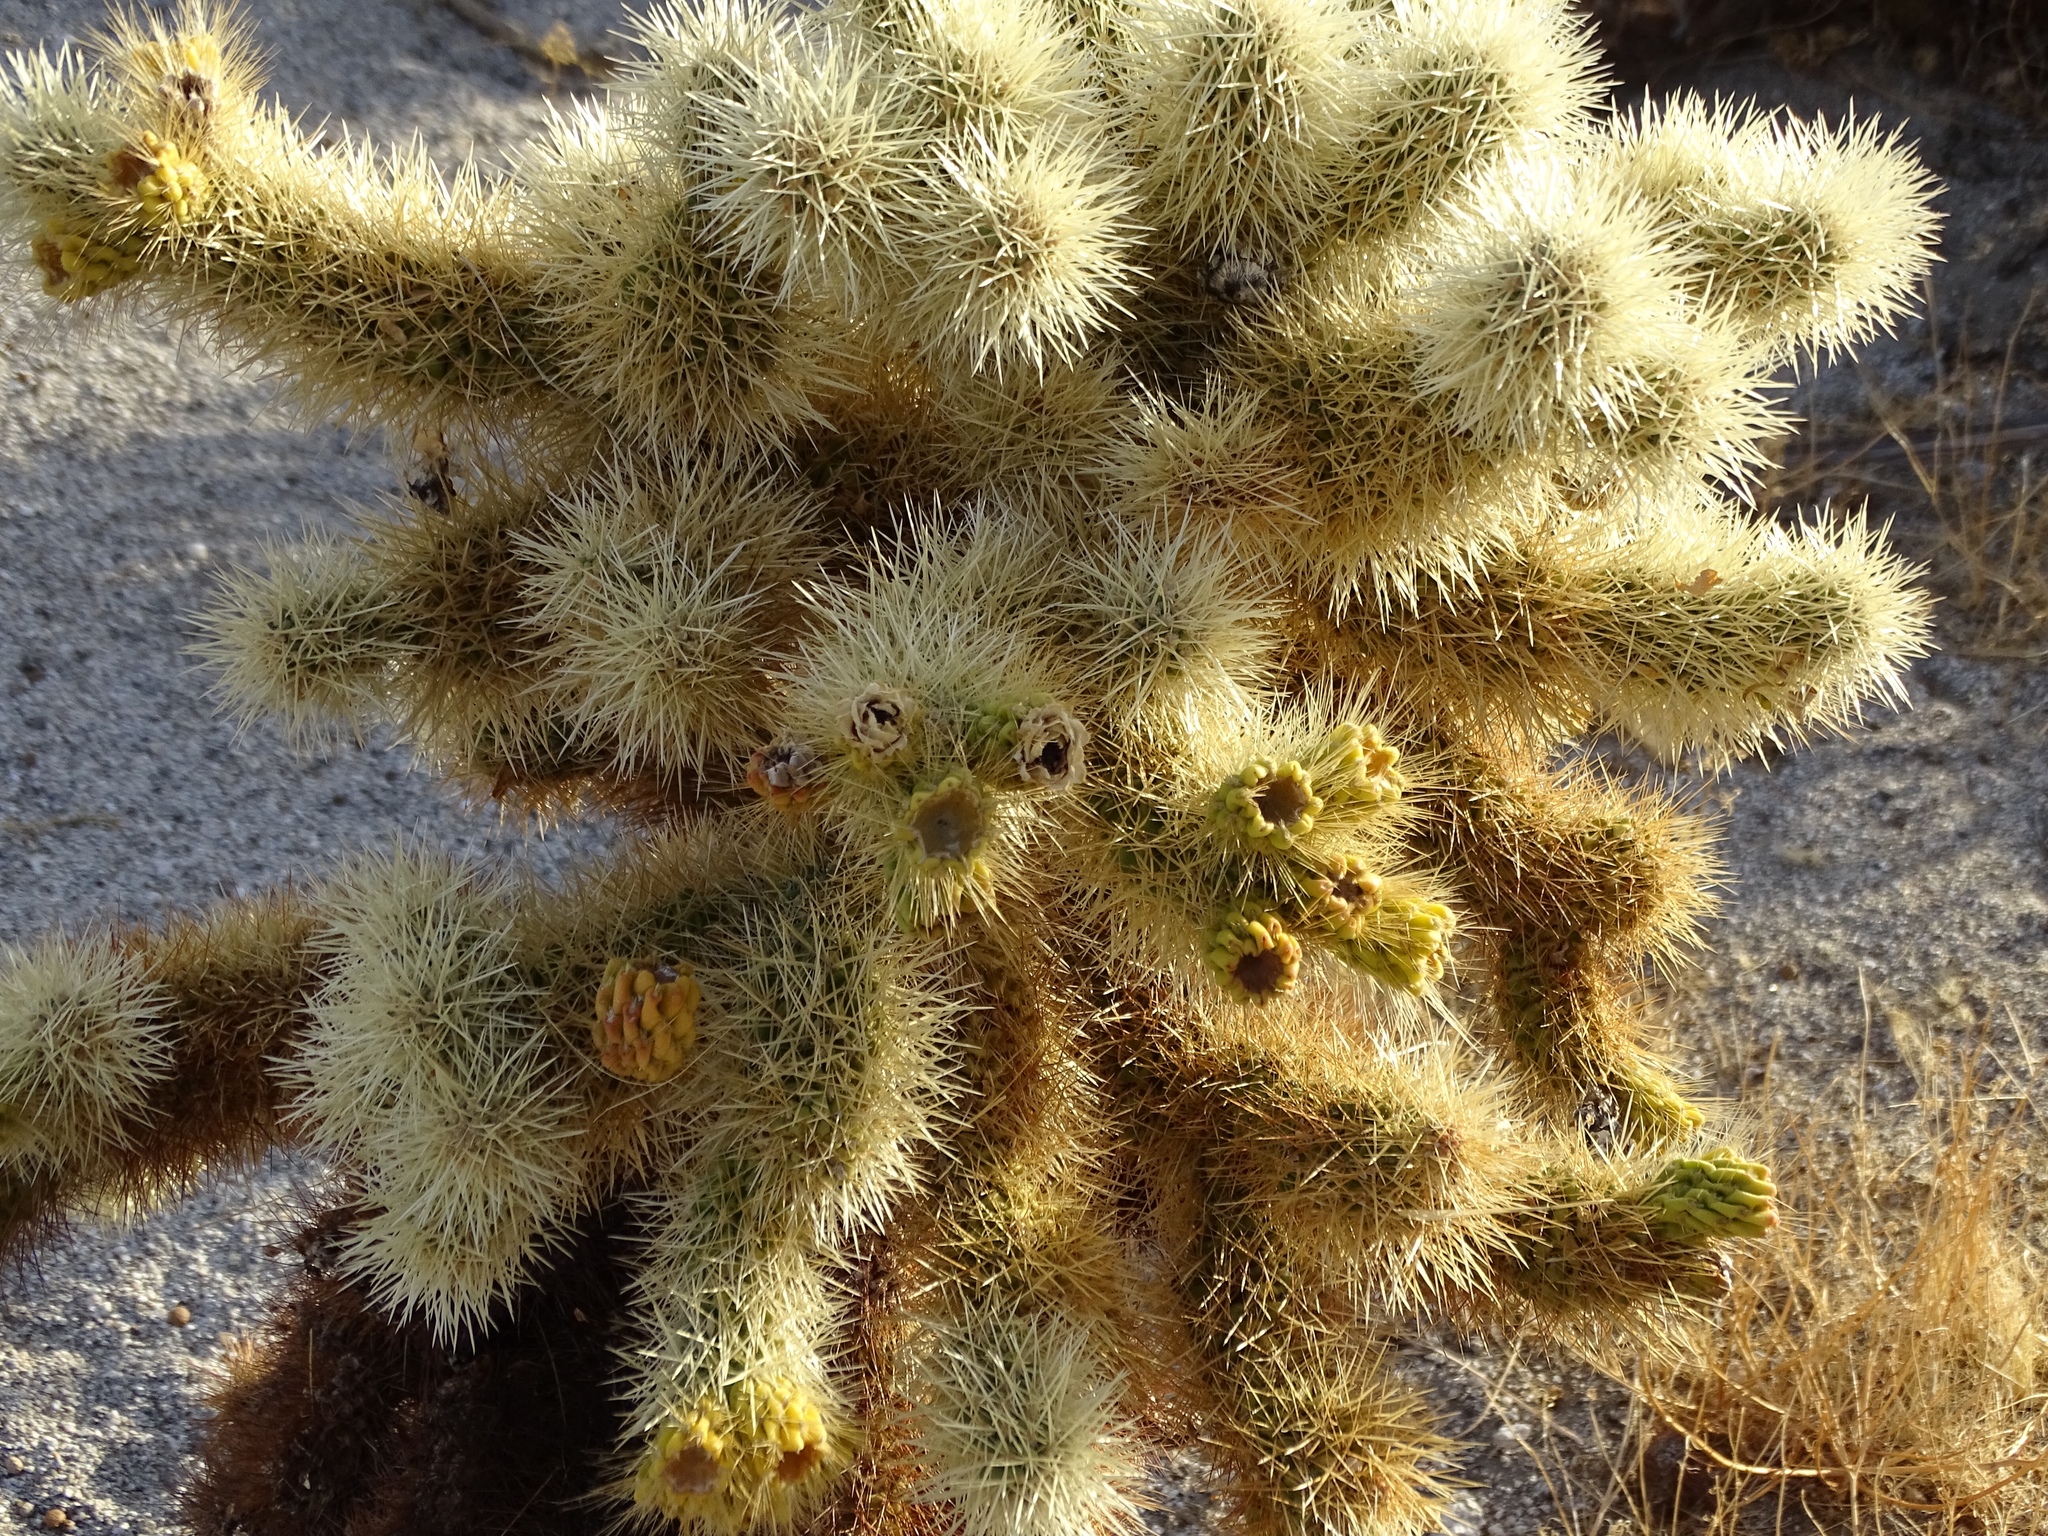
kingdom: Plantae
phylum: Tracheophyta
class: Magnoliopsida
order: Caryophyllales
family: Cactaceae
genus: Cylindropuntia
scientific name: Cylindropuntia fosbergii
